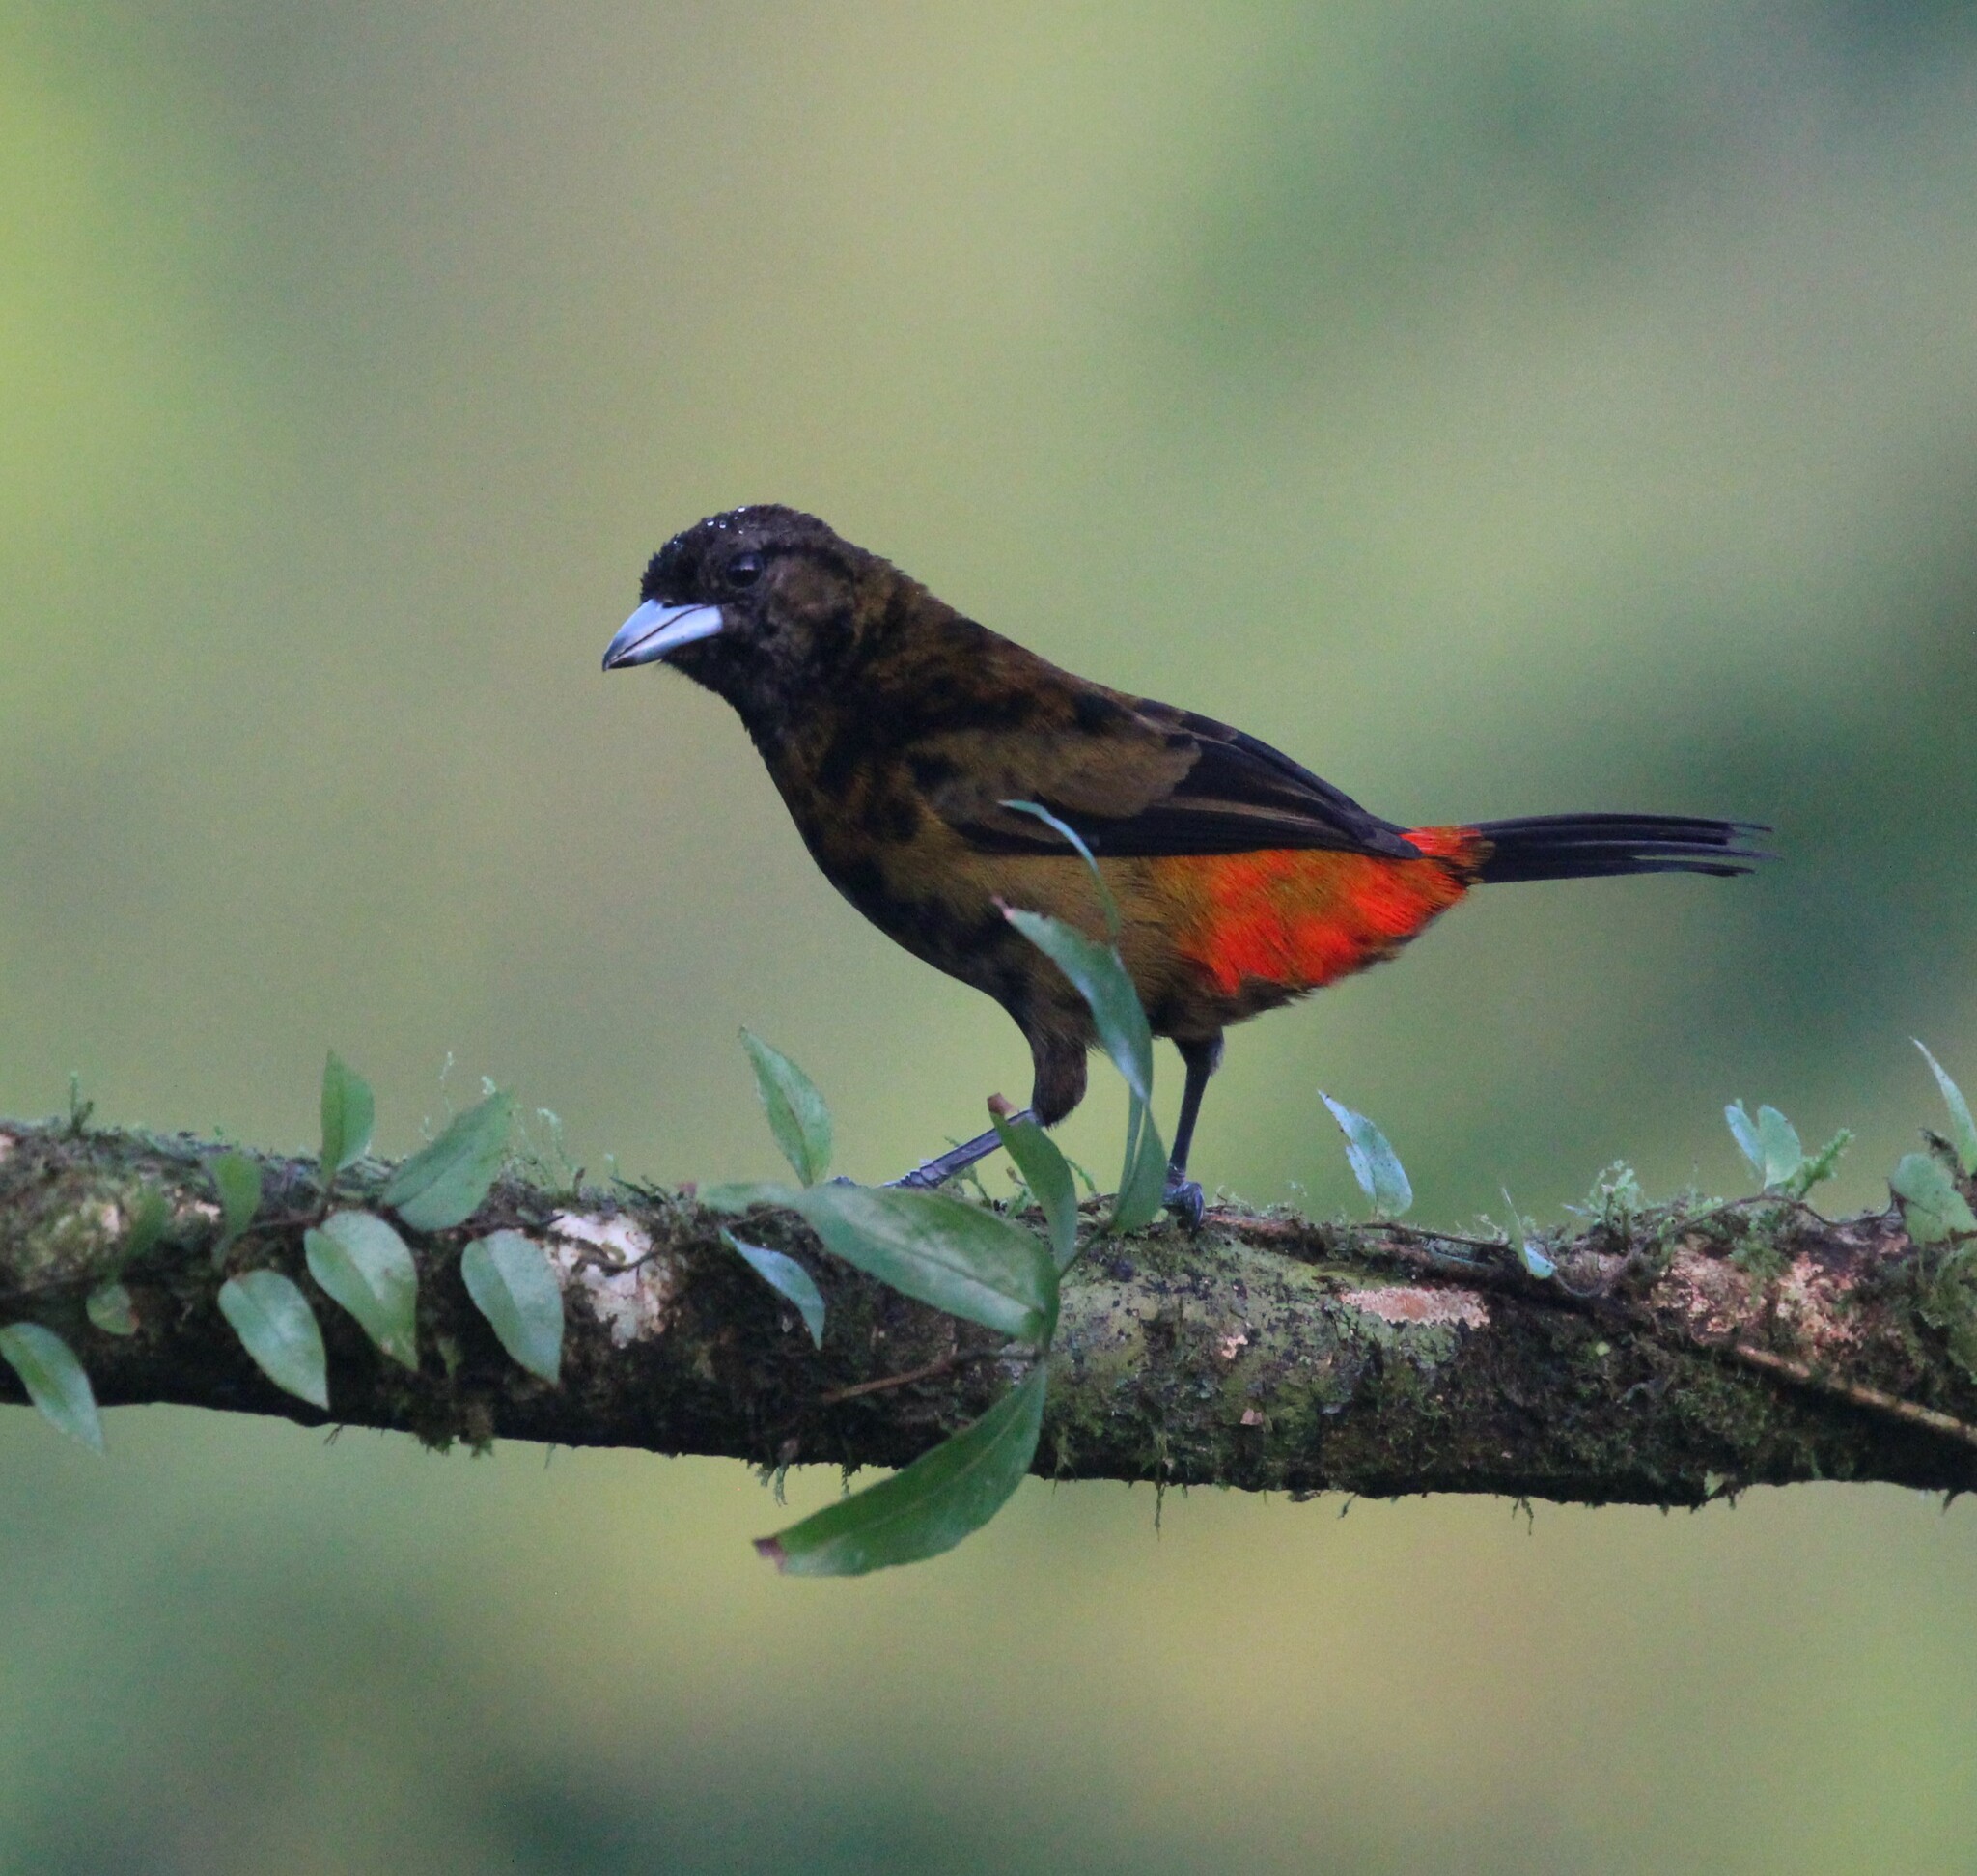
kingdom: Animalia
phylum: Chordata
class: Aves
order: Passeriformes
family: Thraupidae
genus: Ramphocelus
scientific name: Ramphocelus passerinii
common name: Passerini's tanager
